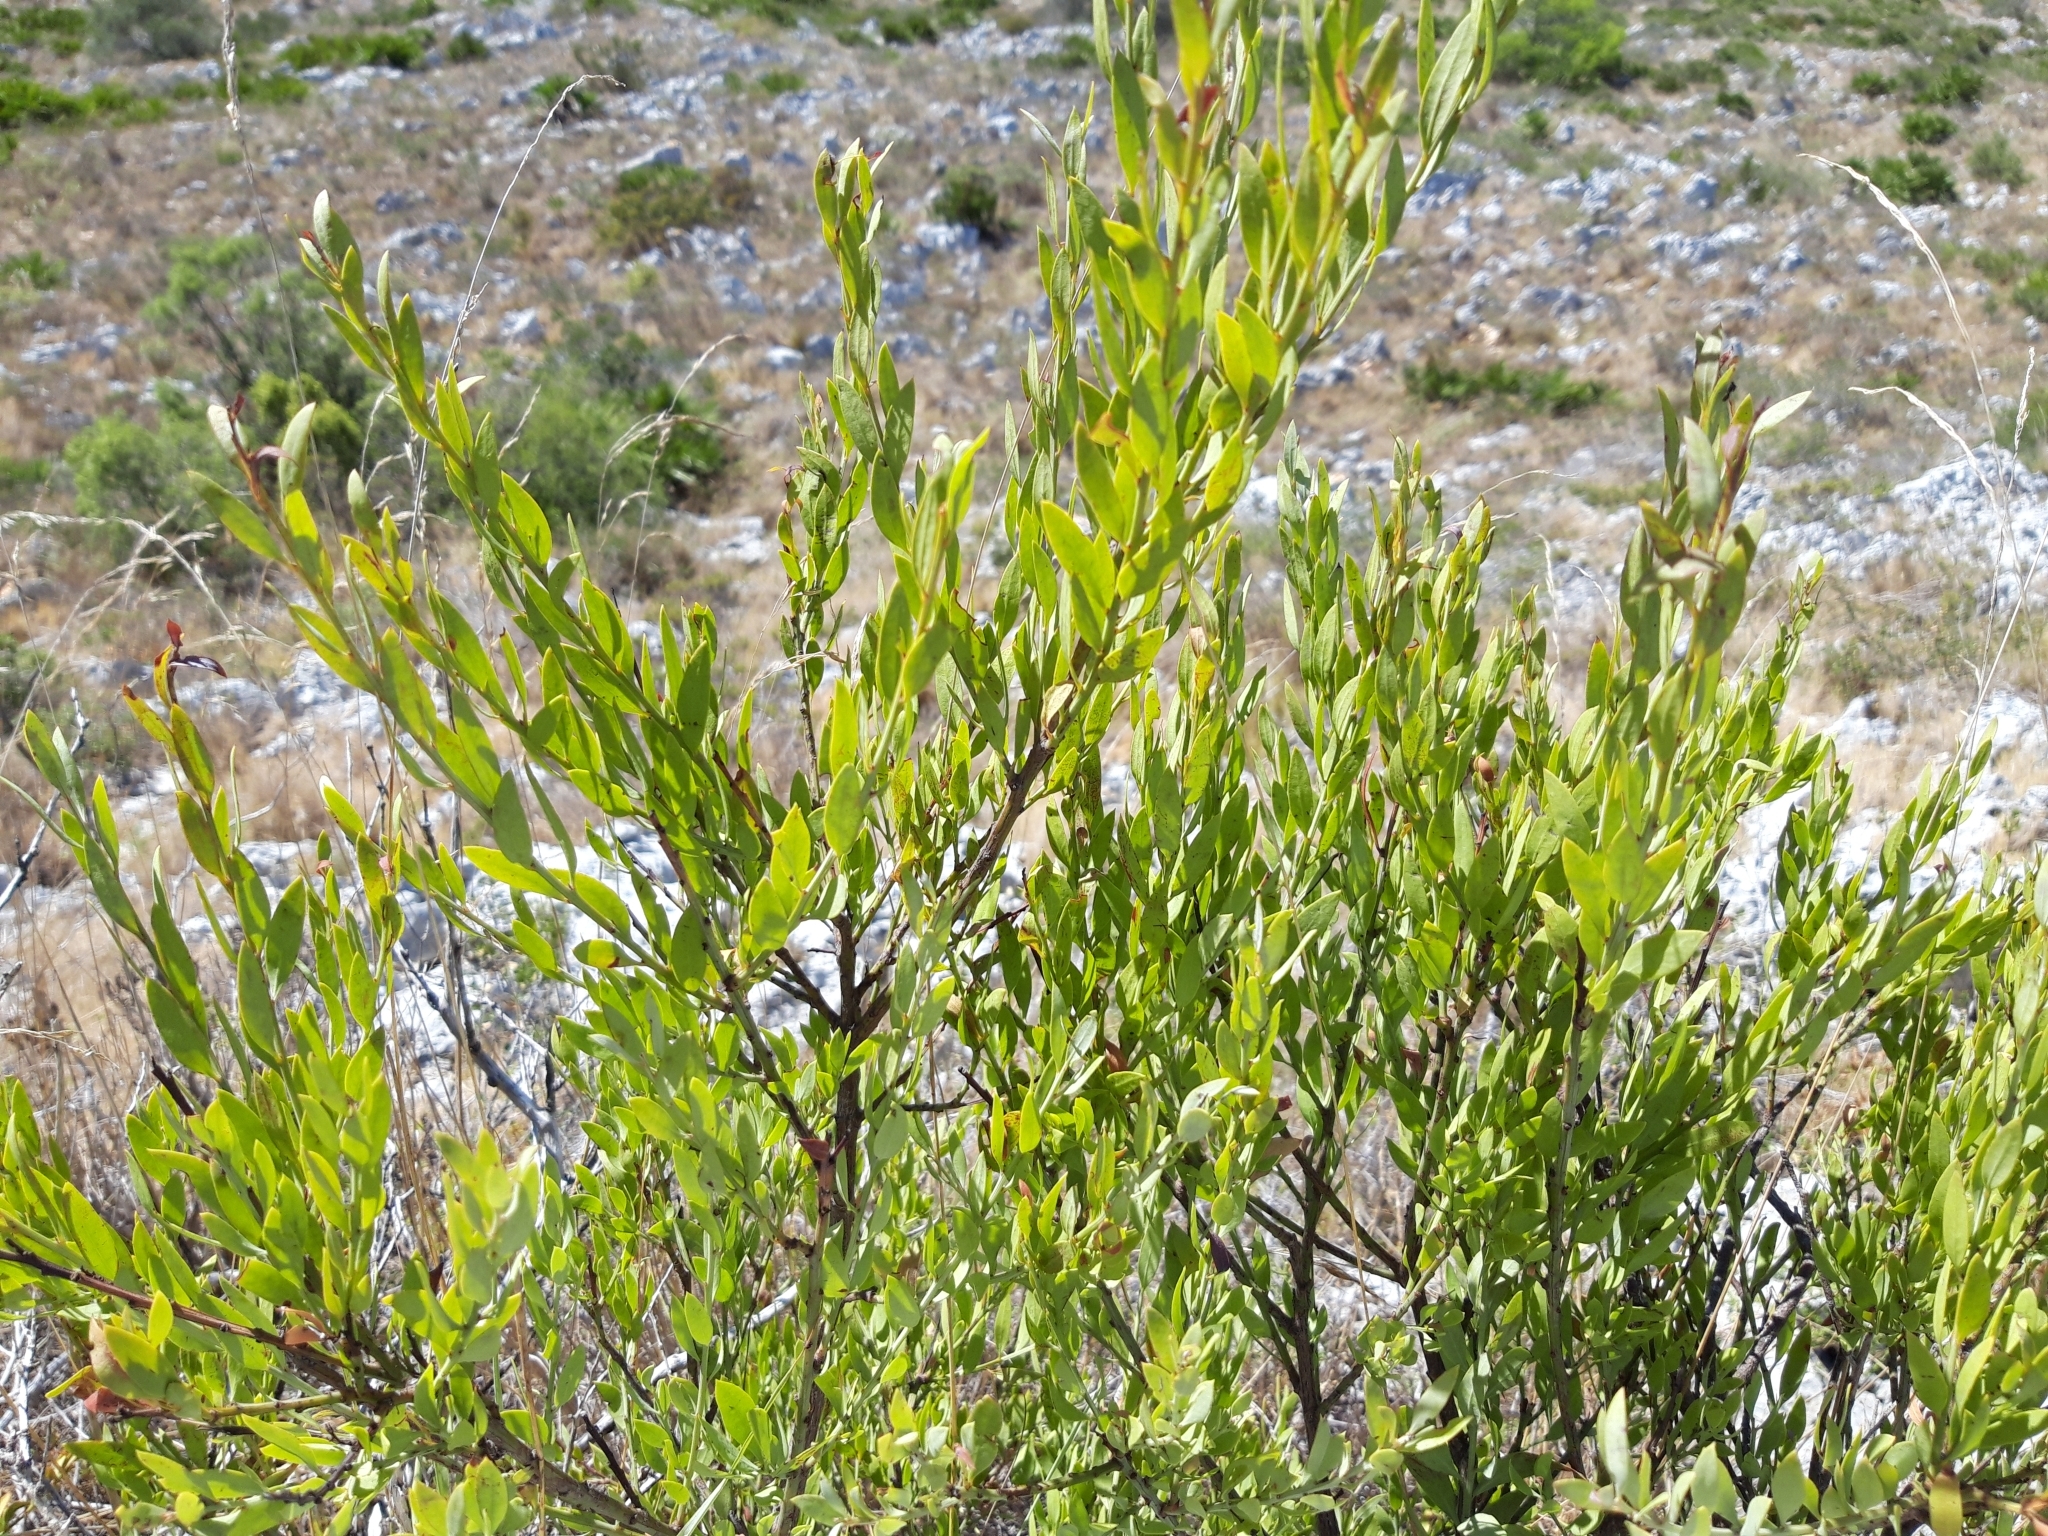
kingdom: Plantae
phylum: Tracheophyta
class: Magnoliopsida
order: Santalales
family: Santalaceae
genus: Osyris
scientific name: Osyris lanceolata
